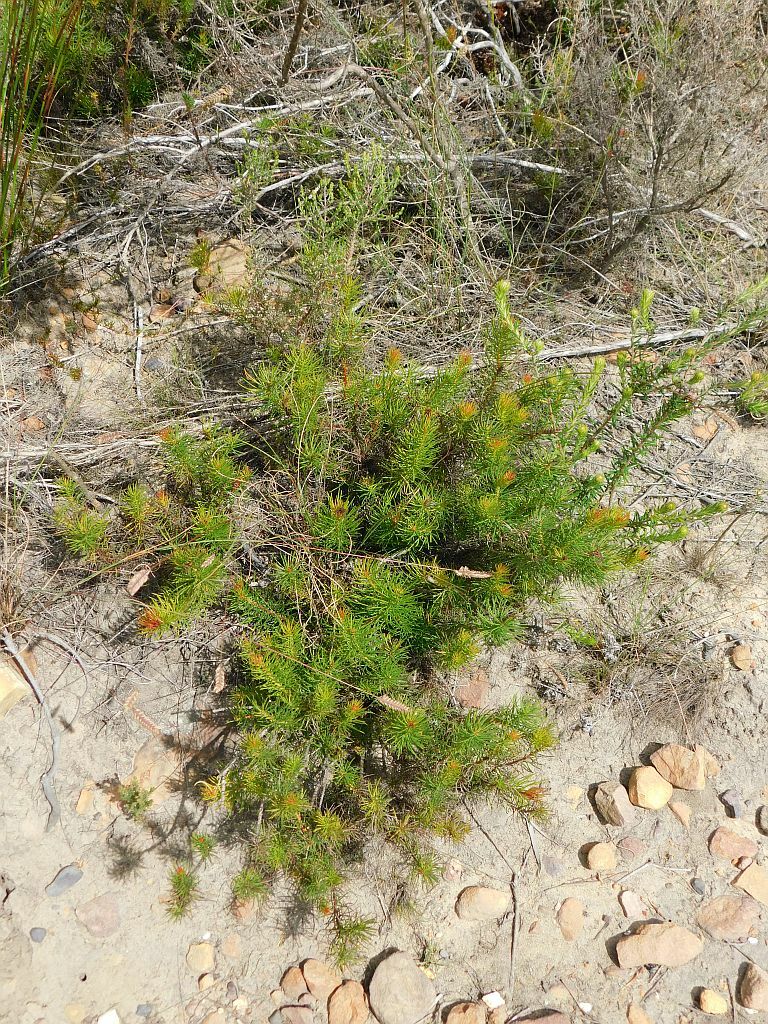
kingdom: Plantae
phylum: Tracheophyta
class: Magnoliopsida
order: Proteales
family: Proteaceae
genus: Protea
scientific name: Protea subulifolia
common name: Awl-leaf sugarbush
